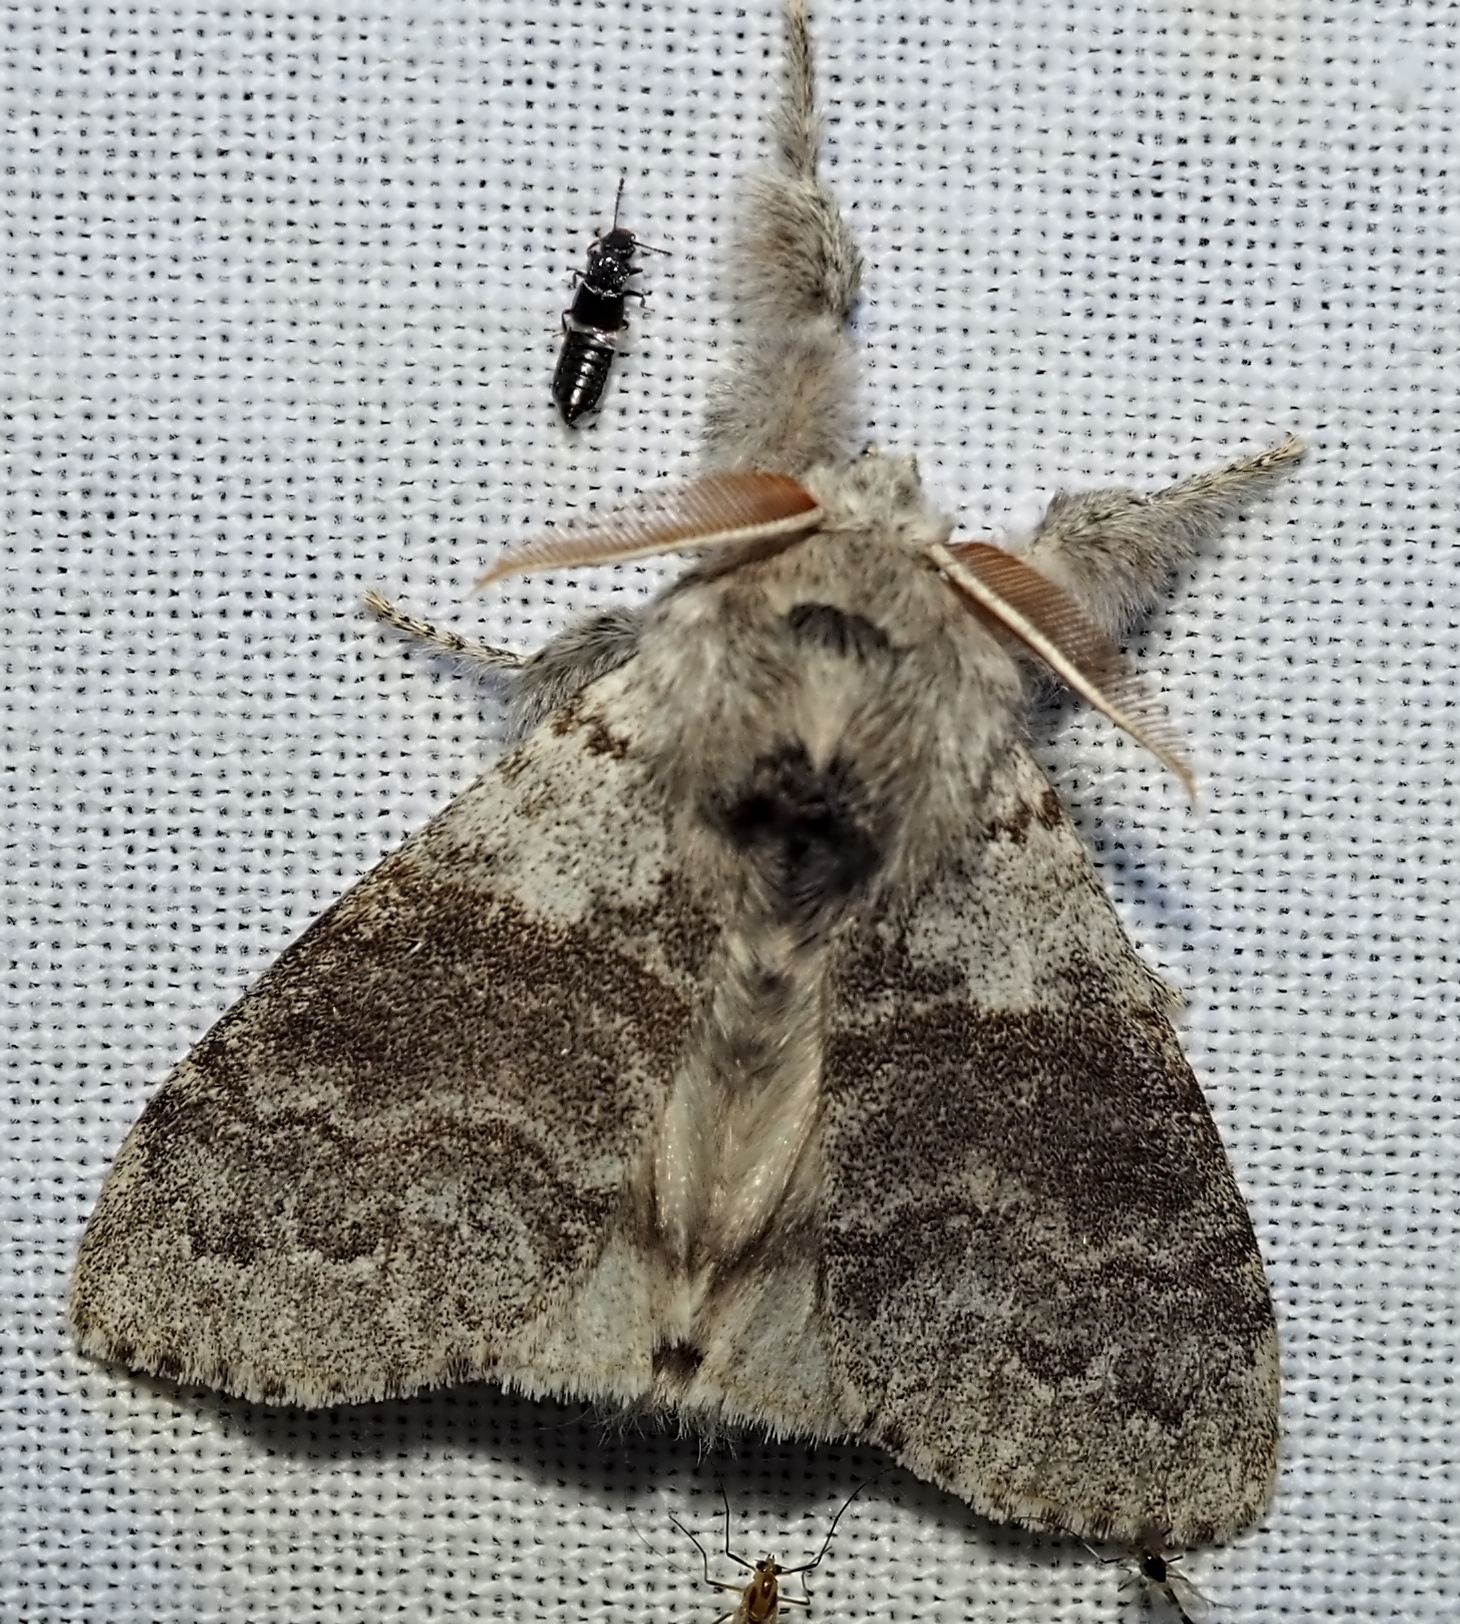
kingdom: Animalia
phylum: Arthropoda
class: Insecta
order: Lepidoptera
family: Erebidae
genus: Calliteara
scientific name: Calliteara pudibunda
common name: Pale tussock
